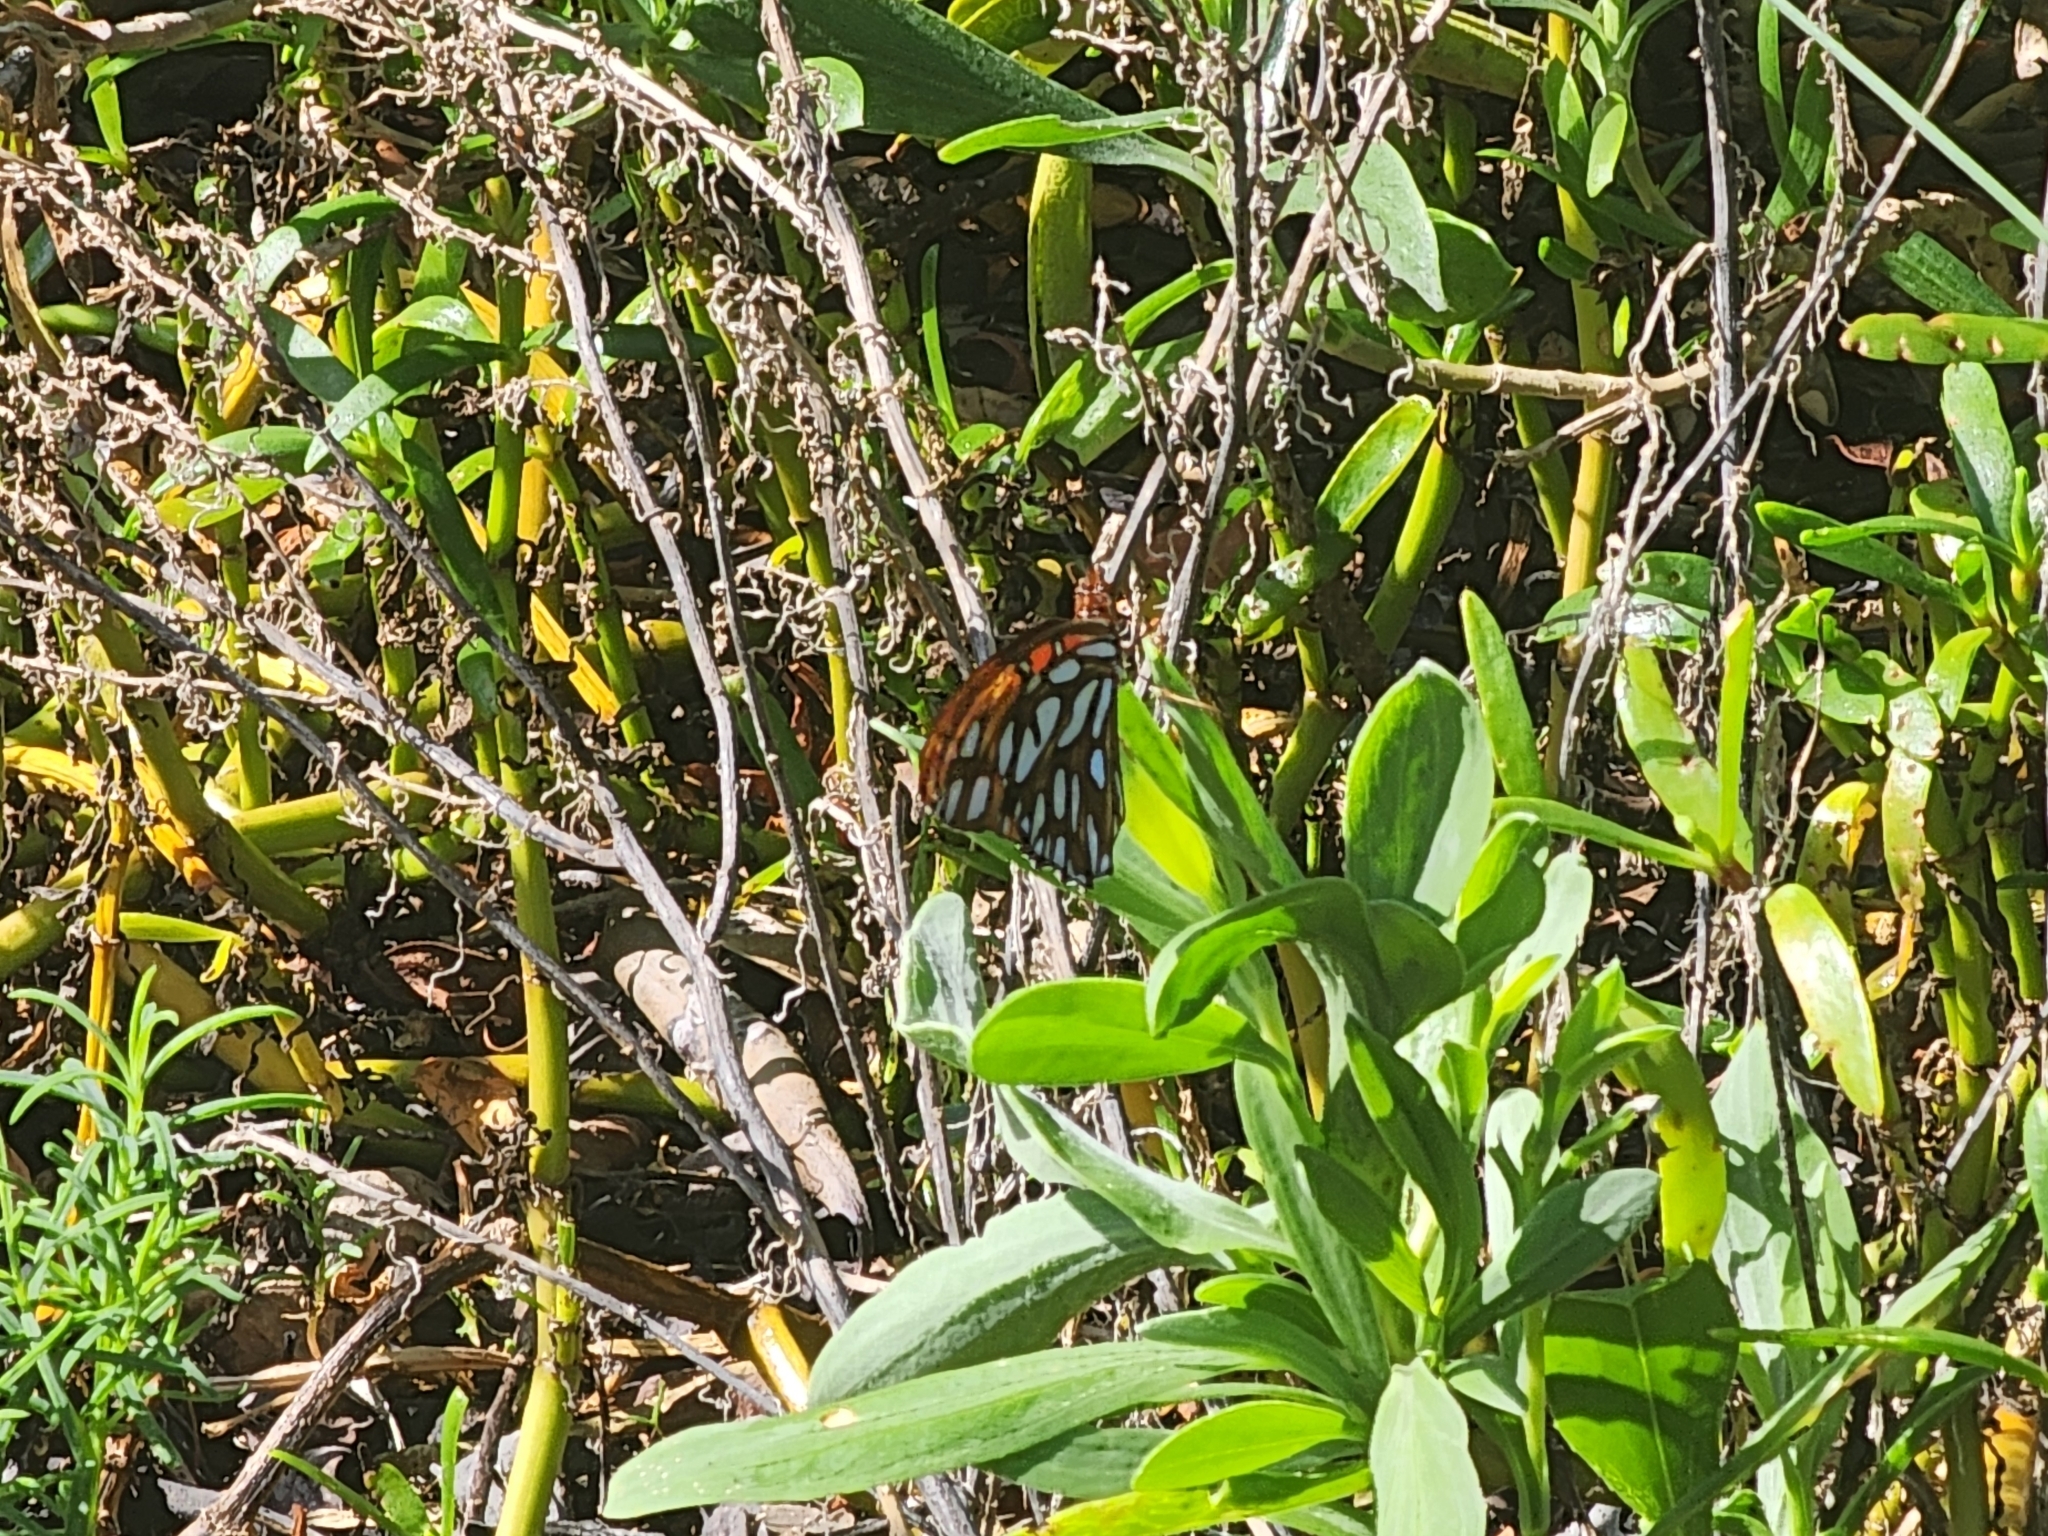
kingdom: Animalia
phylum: Arthropoda
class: Insecta
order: Lepidoptera
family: Nymphalidae
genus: Dione
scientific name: Dione vanillae
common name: Gulf fritillary
